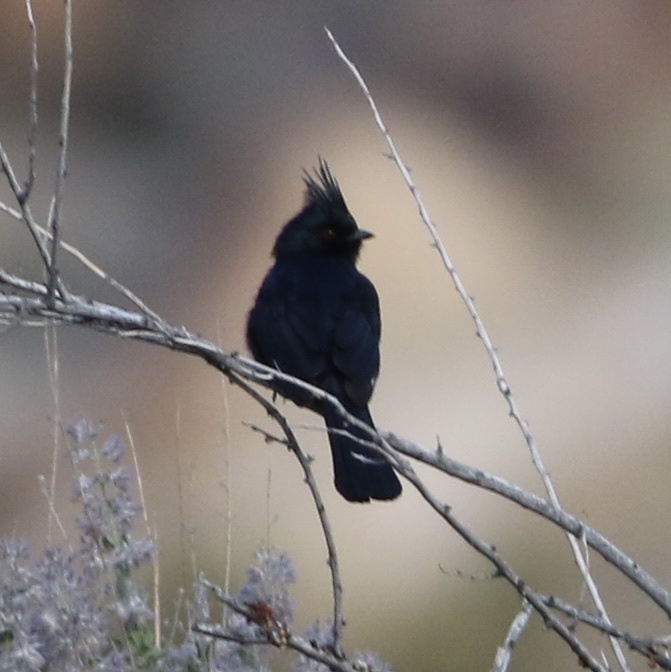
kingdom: Animalia
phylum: Chordata
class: Aves
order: Passeriformes
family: Ptilogonatidae
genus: Phainopepla
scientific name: Phainopepla nitens
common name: Phainopepla
